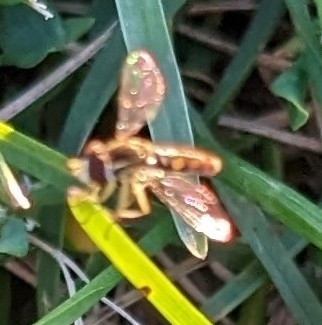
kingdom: Animalia
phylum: Arthropoda
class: Insecta
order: Diptera
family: Syrphidae
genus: Toxomerus
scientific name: Toxomerus marginatus
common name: Syrphid fly
